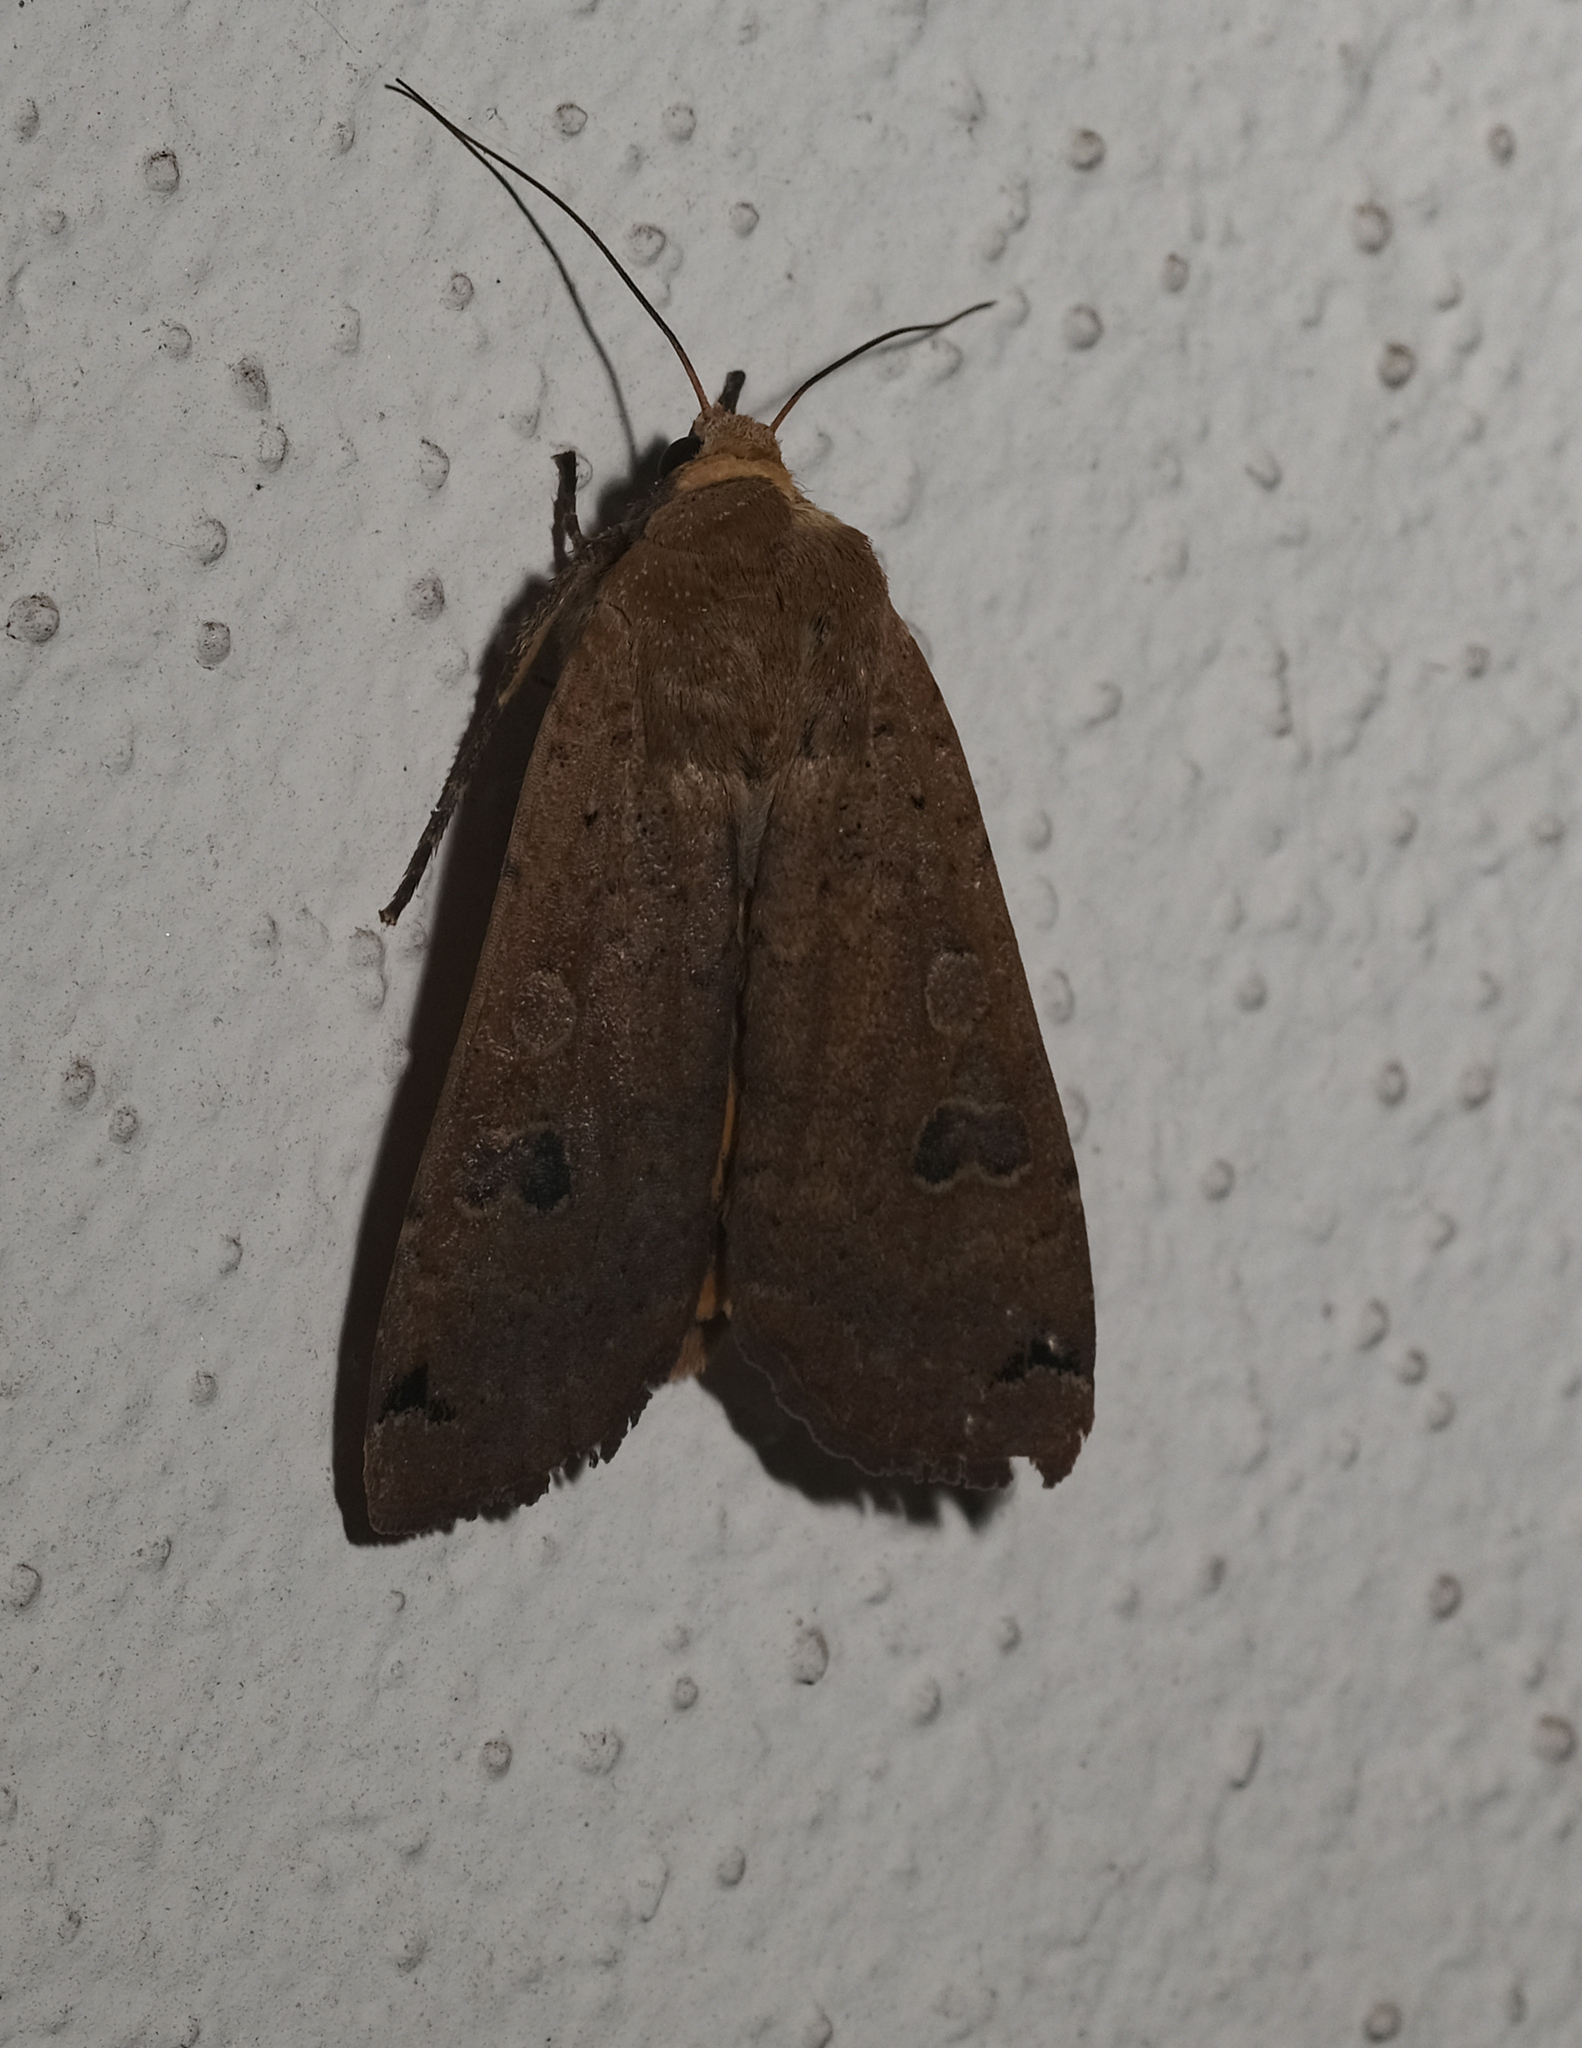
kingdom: Animalia
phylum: Arthropoda
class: Insecta
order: Lepidoptera
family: Noctuidae
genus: Noctua
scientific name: Noctua pronuba
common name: Large yellow underwing
